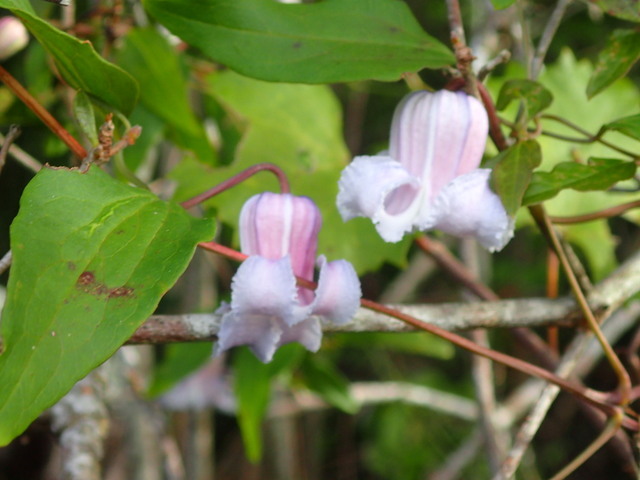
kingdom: Plantae
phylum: Tracheophyta
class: Magnoliopsida
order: Ranunculales
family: Ranunculaceae
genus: Clematis
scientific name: Clematis crispa
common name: Curly clematis
